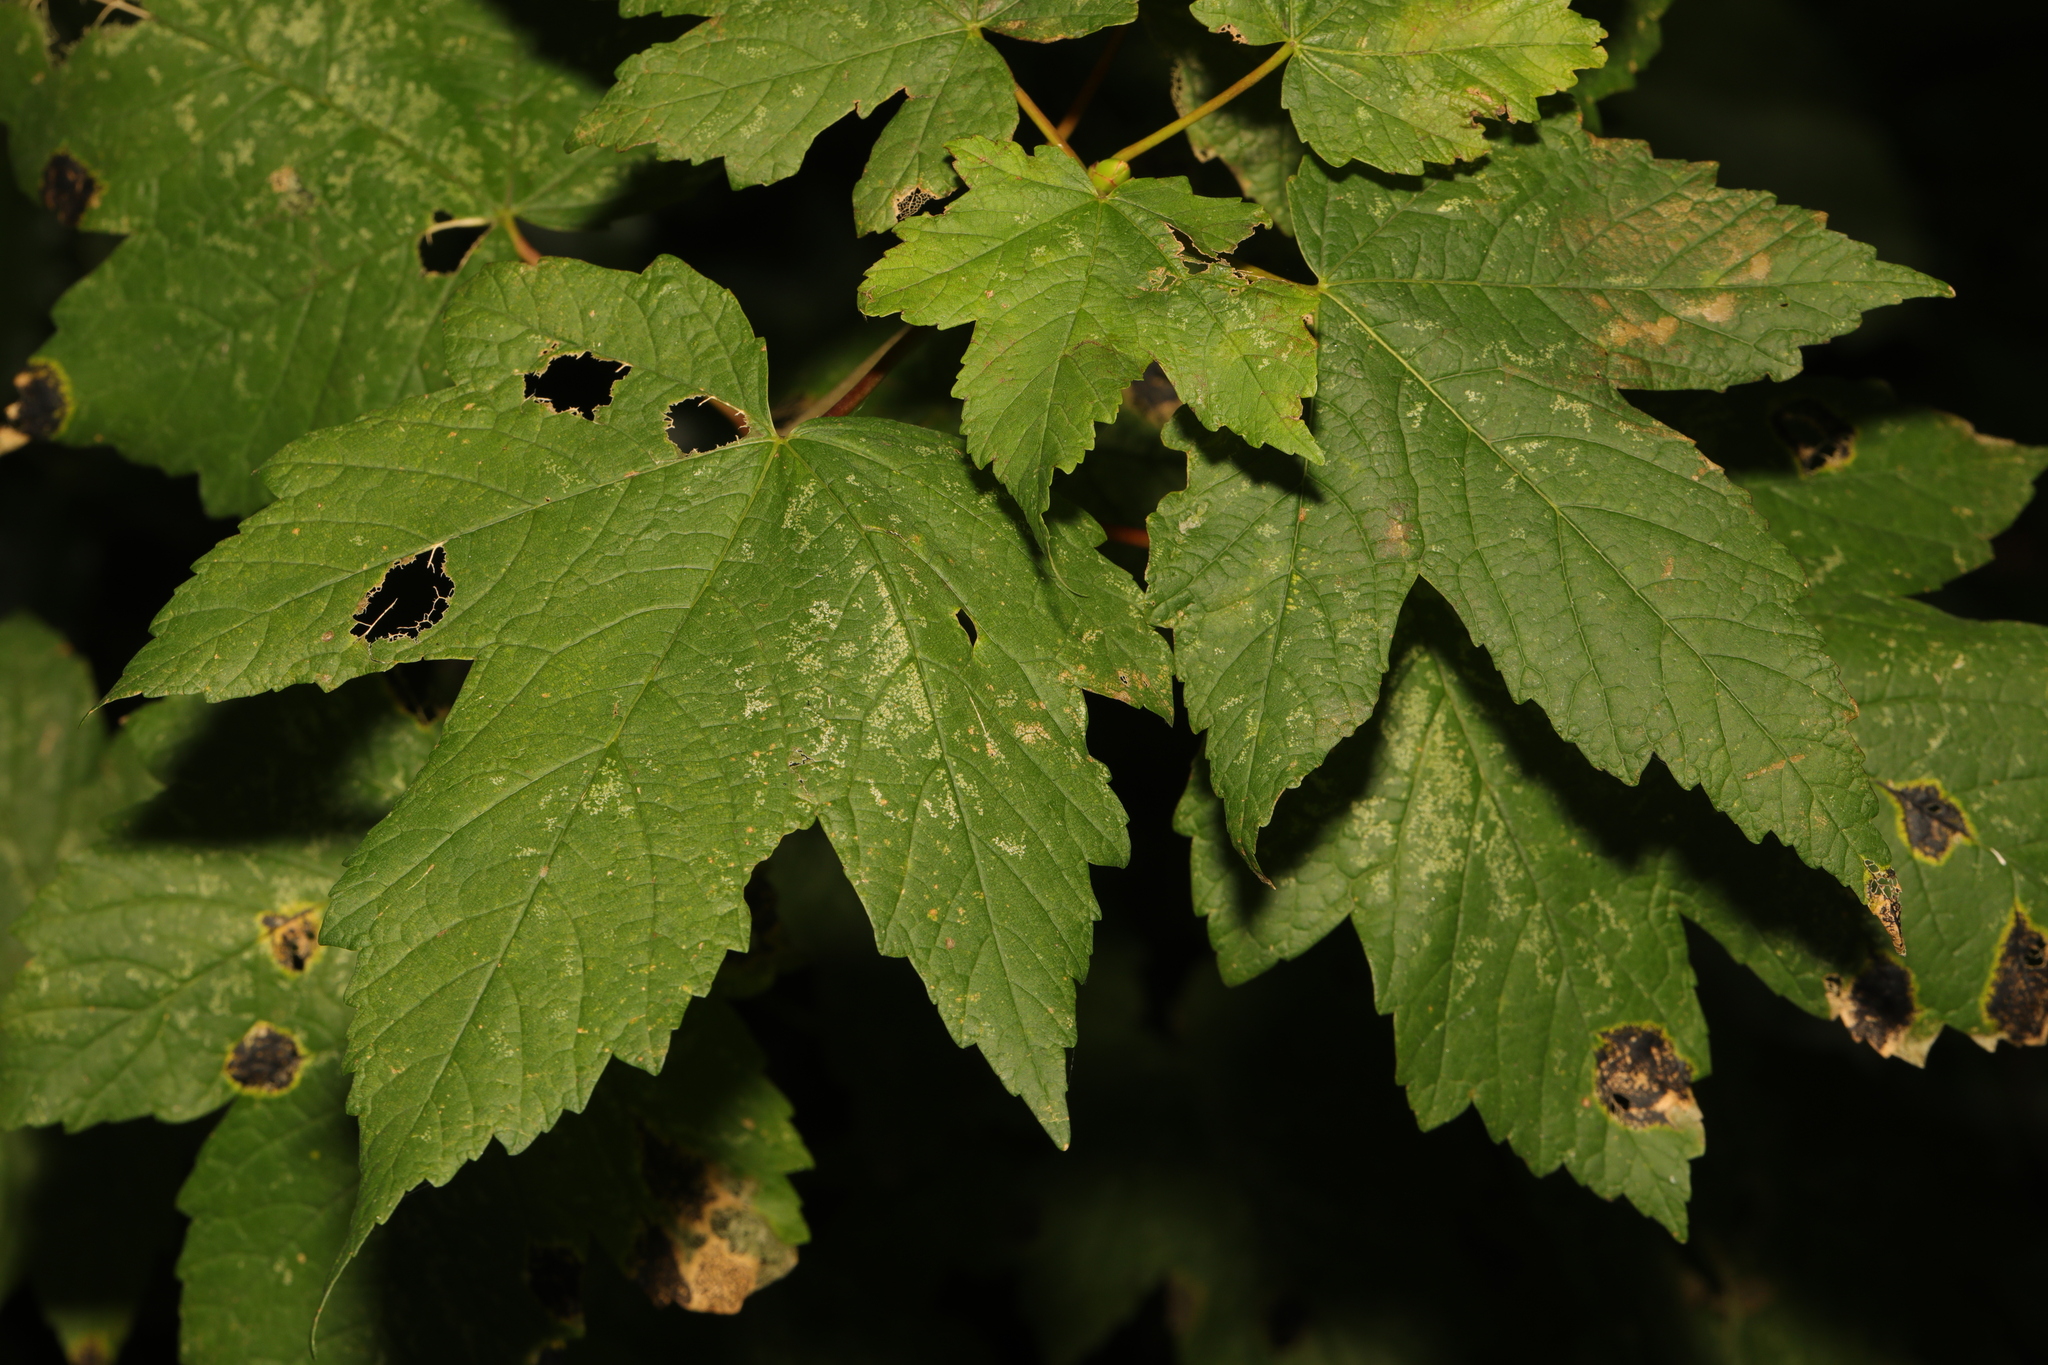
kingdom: Plantae
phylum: Tracheophyta
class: Magnoliopsida
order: Sapindales
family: Sapindaceae
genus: Acer
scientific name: Acer pseudoplatanus
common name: Sycamore
